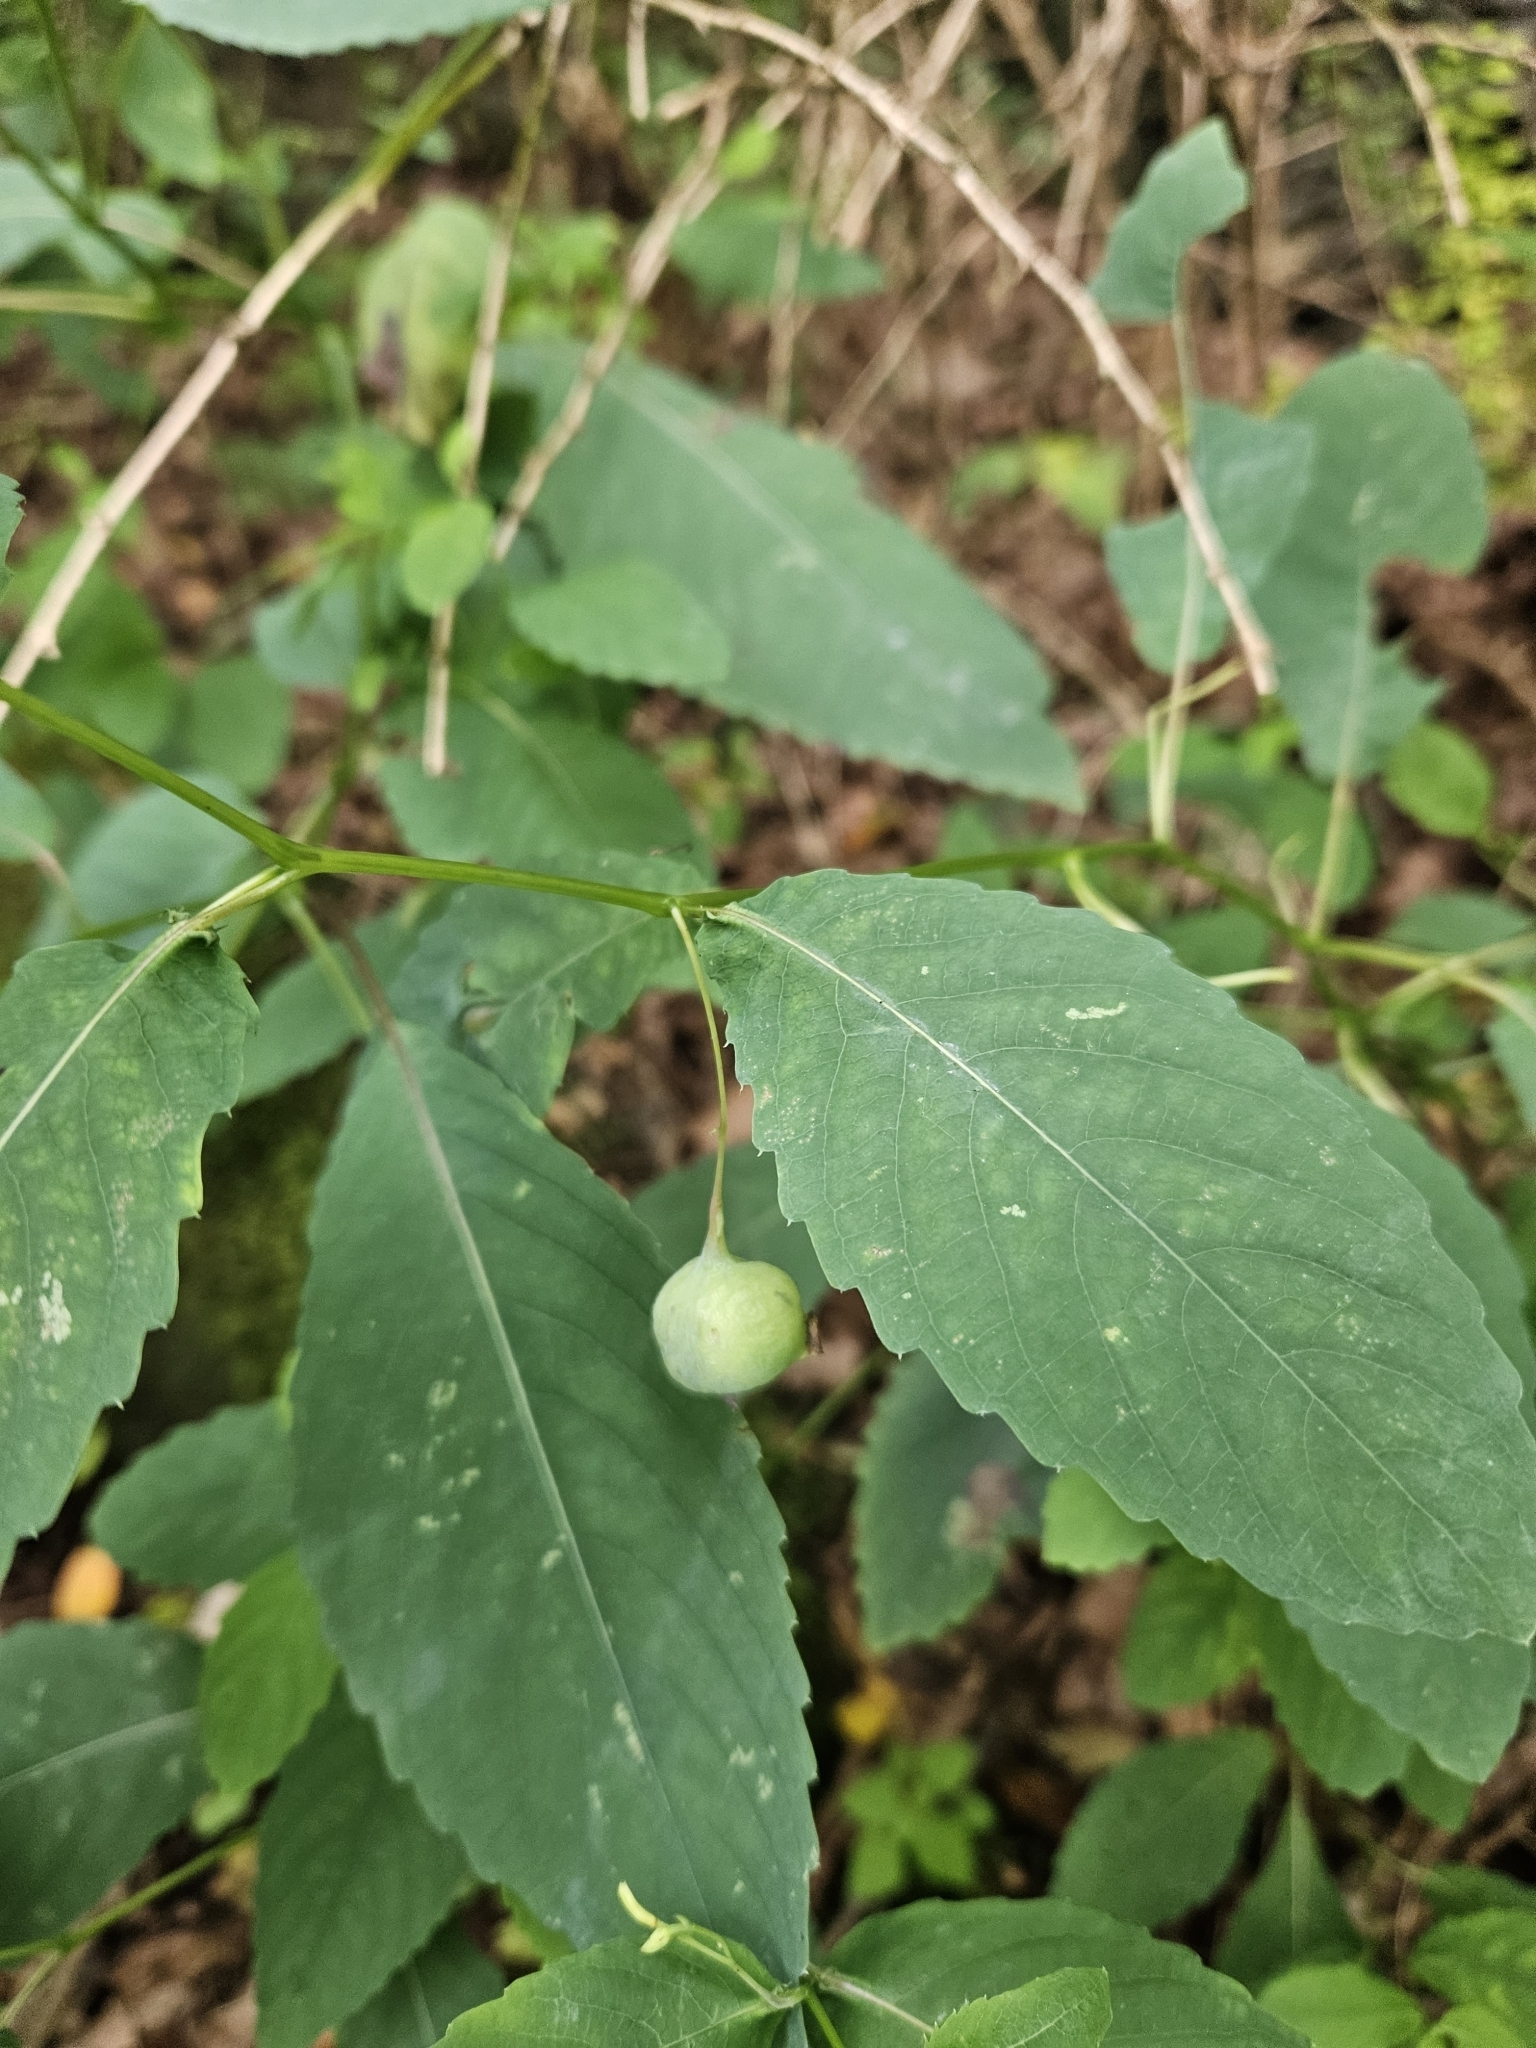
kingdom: Plantae
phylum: Tracheophyta
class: Magnoliopsida
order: Ericales
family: Balsaminaceae
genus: Impatiens
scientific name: Impatiens pallida
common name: Pale snapweed
